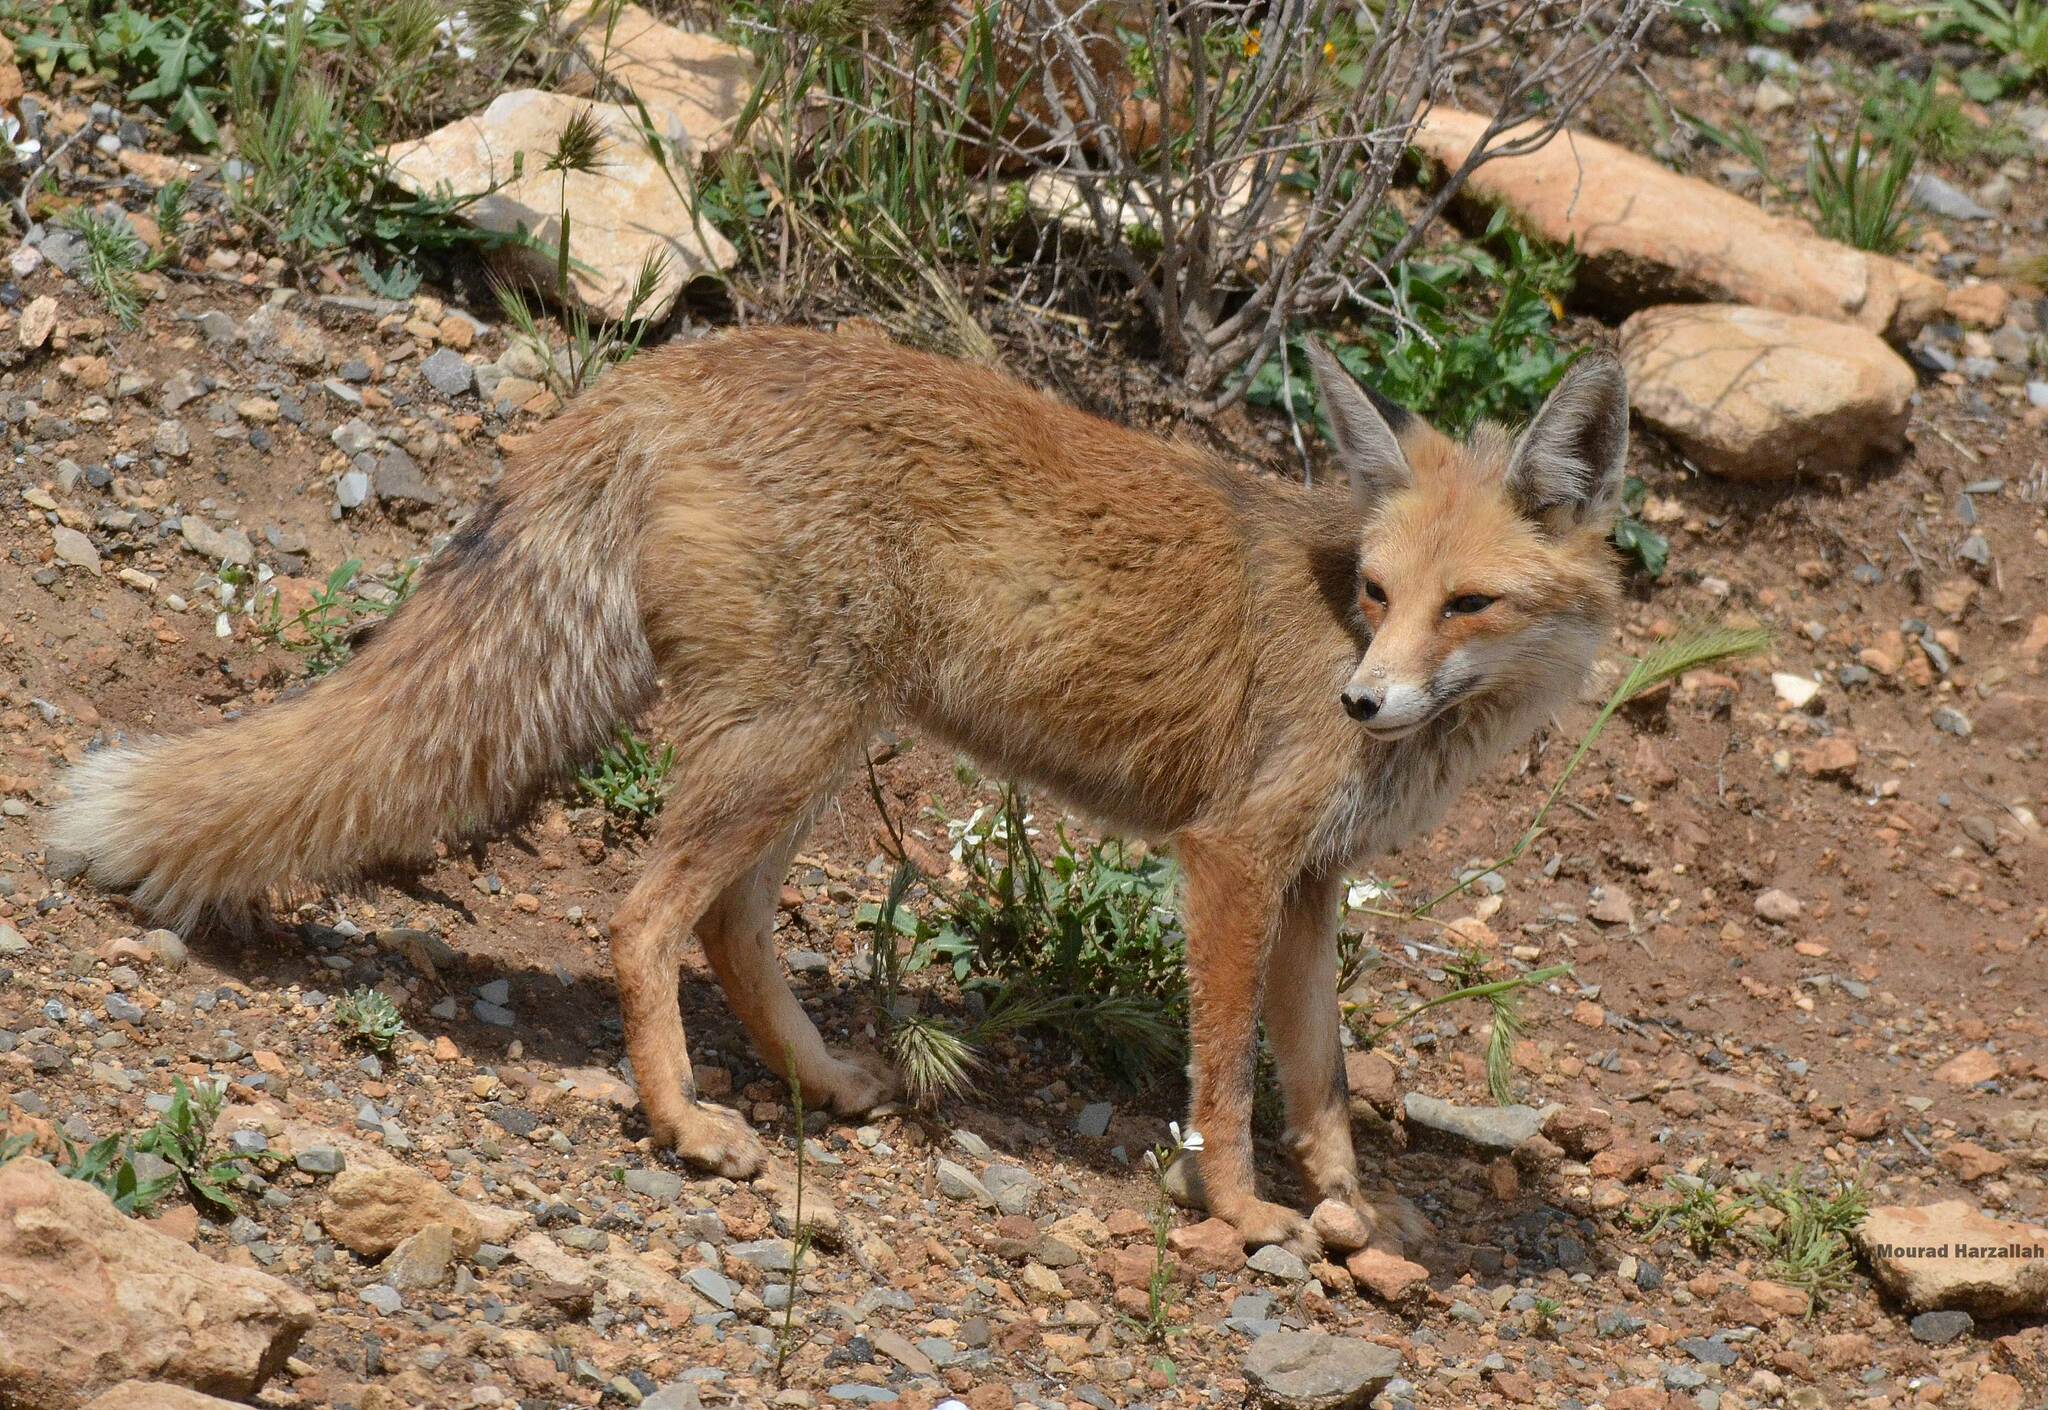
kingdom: Animalia
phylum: Chordata
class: Mammalia
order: Carnivora
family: Canidae
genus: Vulpes
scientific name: Vulpes vulpes
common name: Red fox
